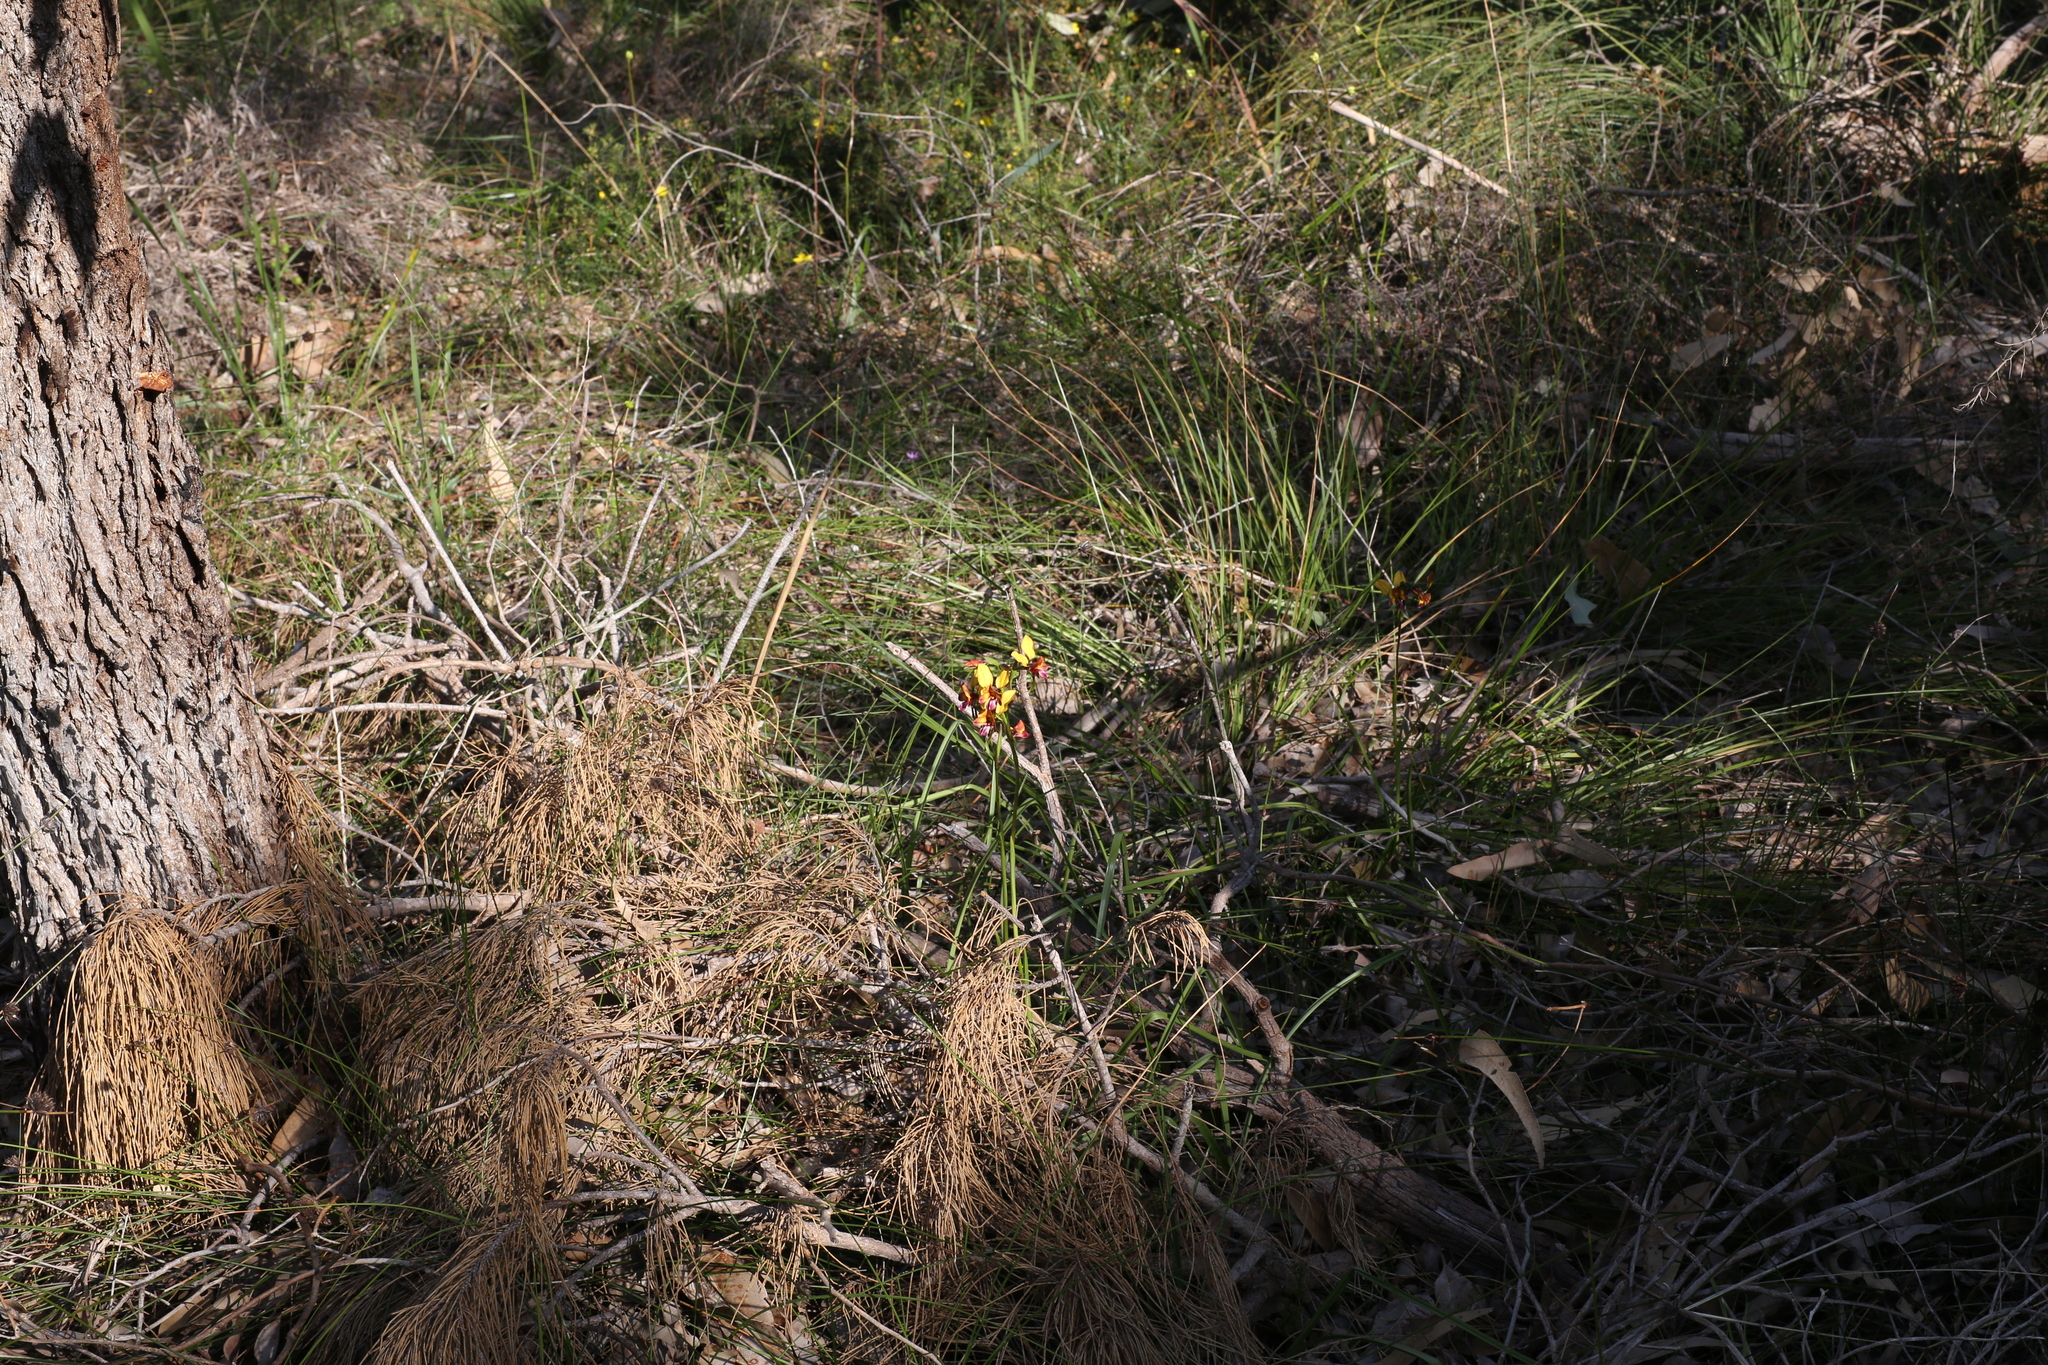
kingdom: Plantae
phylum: Tracheophyta
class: Liliopsida
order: Asparagales
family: Orchidaceae
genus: Diuris
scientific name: Diuris magnifica
